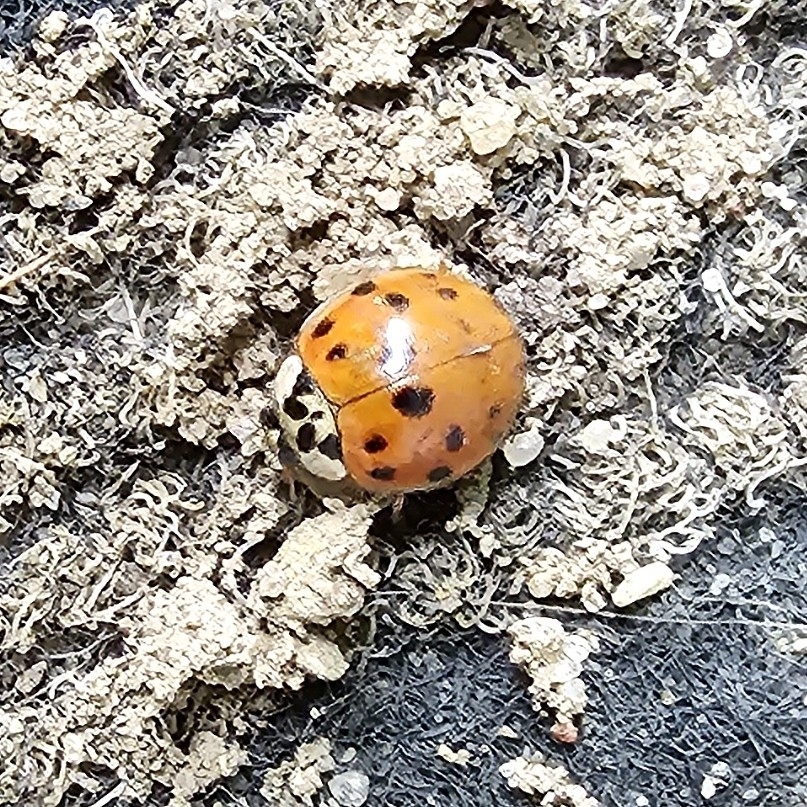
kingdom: Animalia
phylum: Arthropoda
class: Insecta
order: Coleoptera
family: Coccinellidae
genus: Harmonia
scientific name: Harmonia axyridis
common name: Harlequin ladybird
